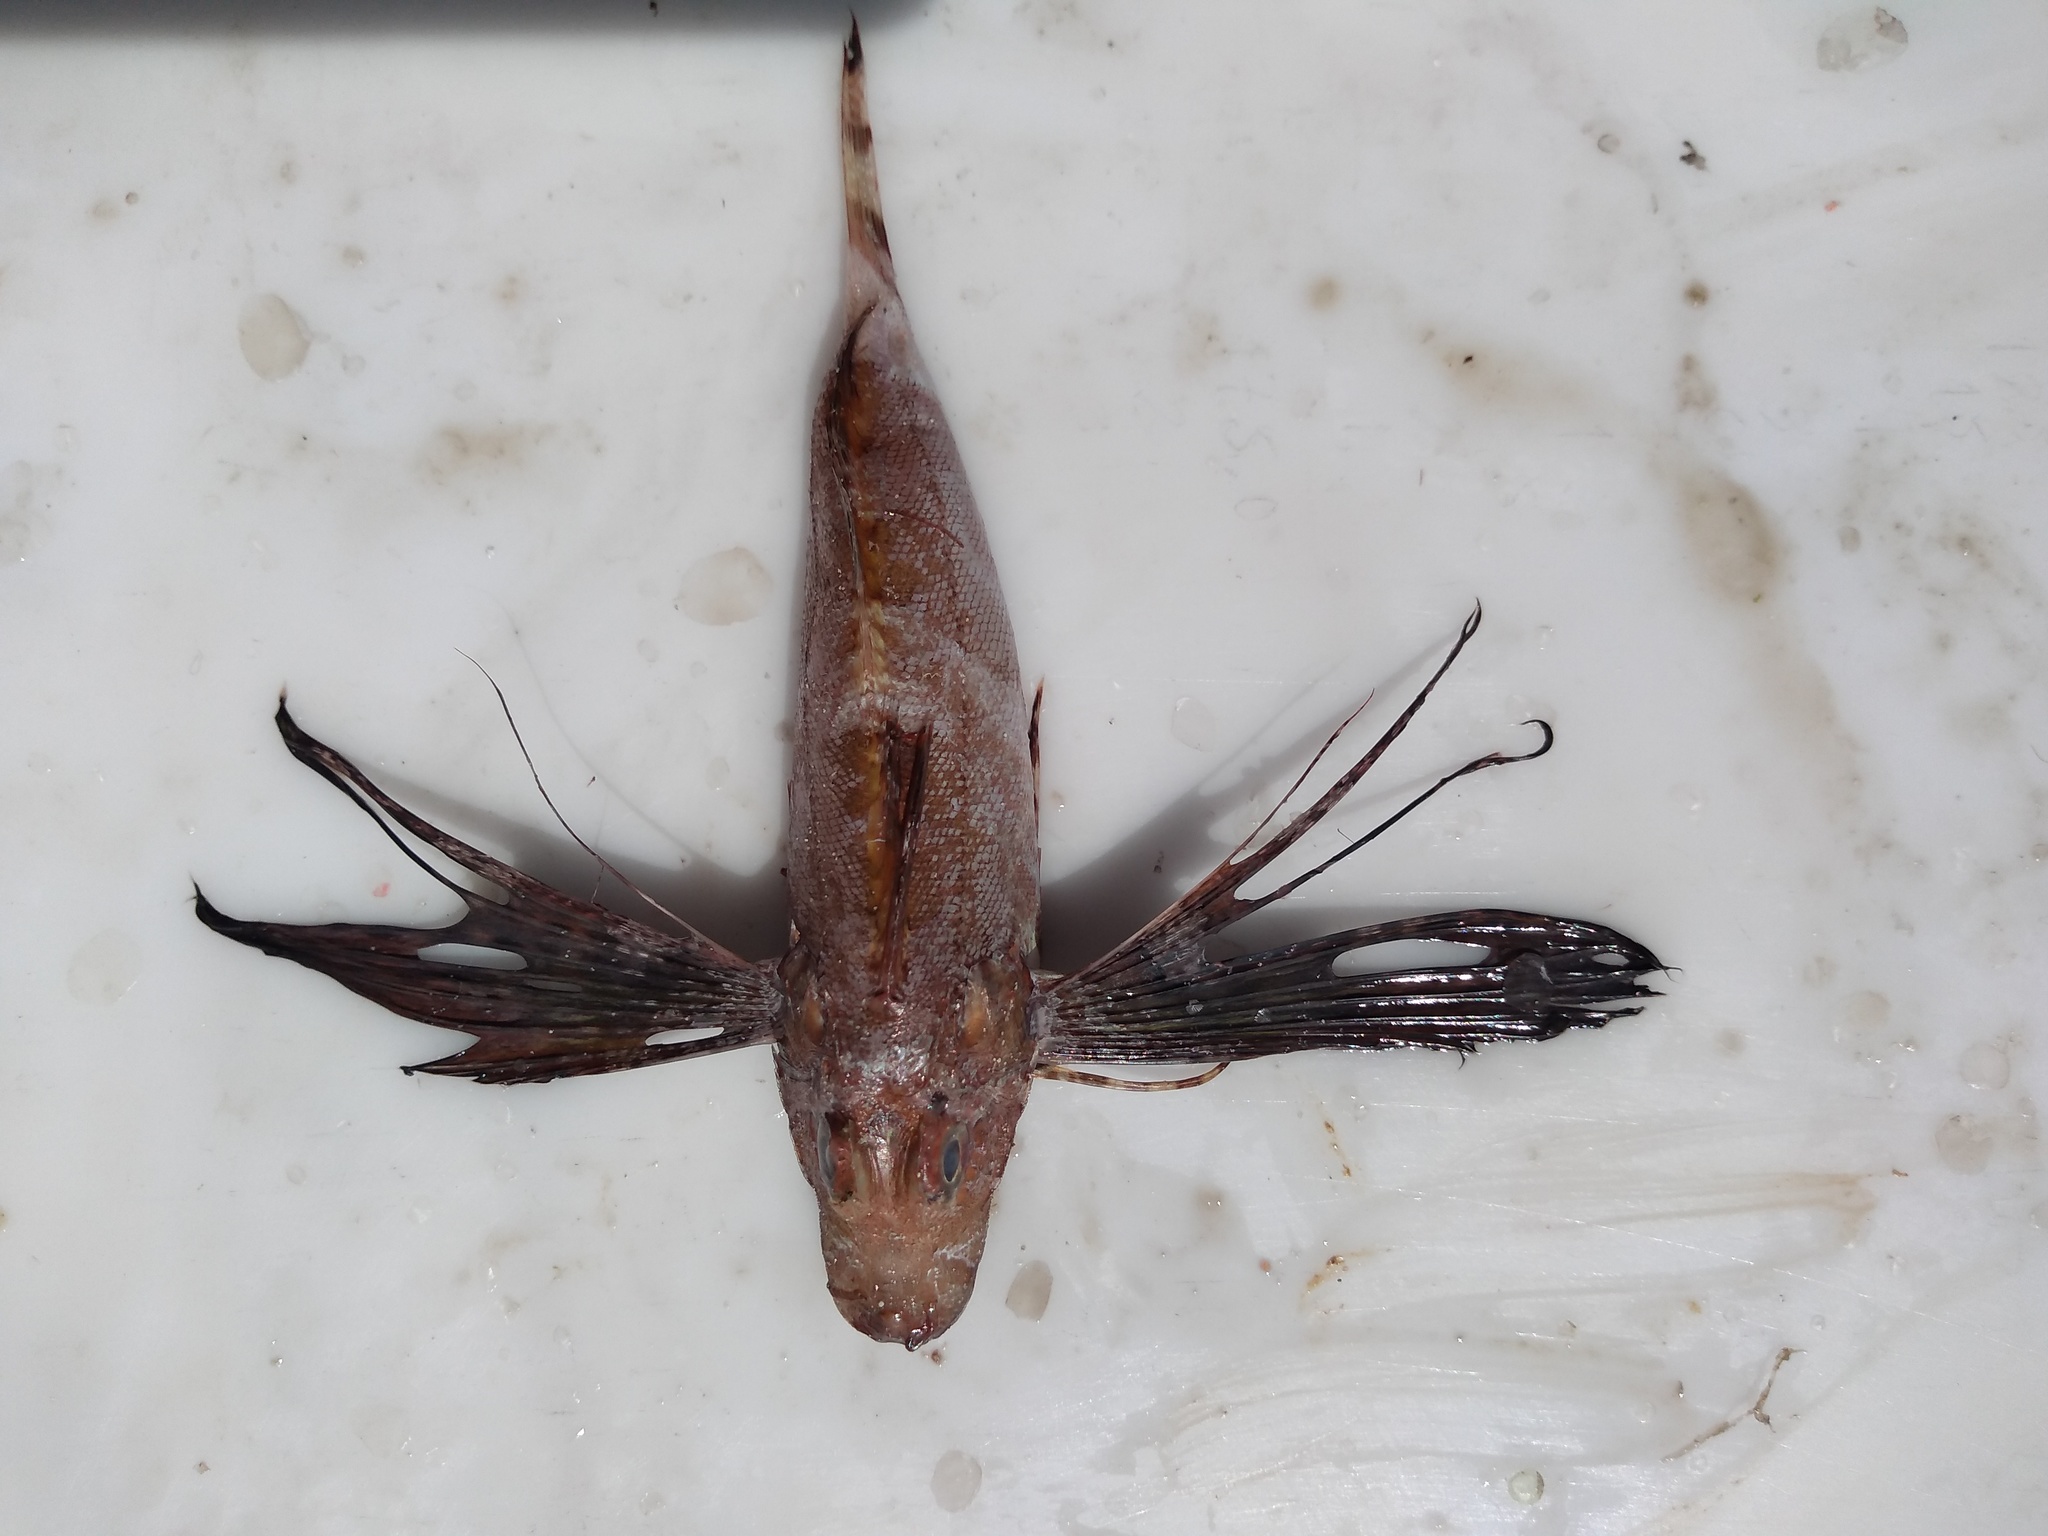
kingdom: Animalia
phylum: Chordata
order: Scorpaeniformes
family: Triglidae
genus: Prionotus
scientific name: Prionotus ophryas
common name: Bandtail searobin
